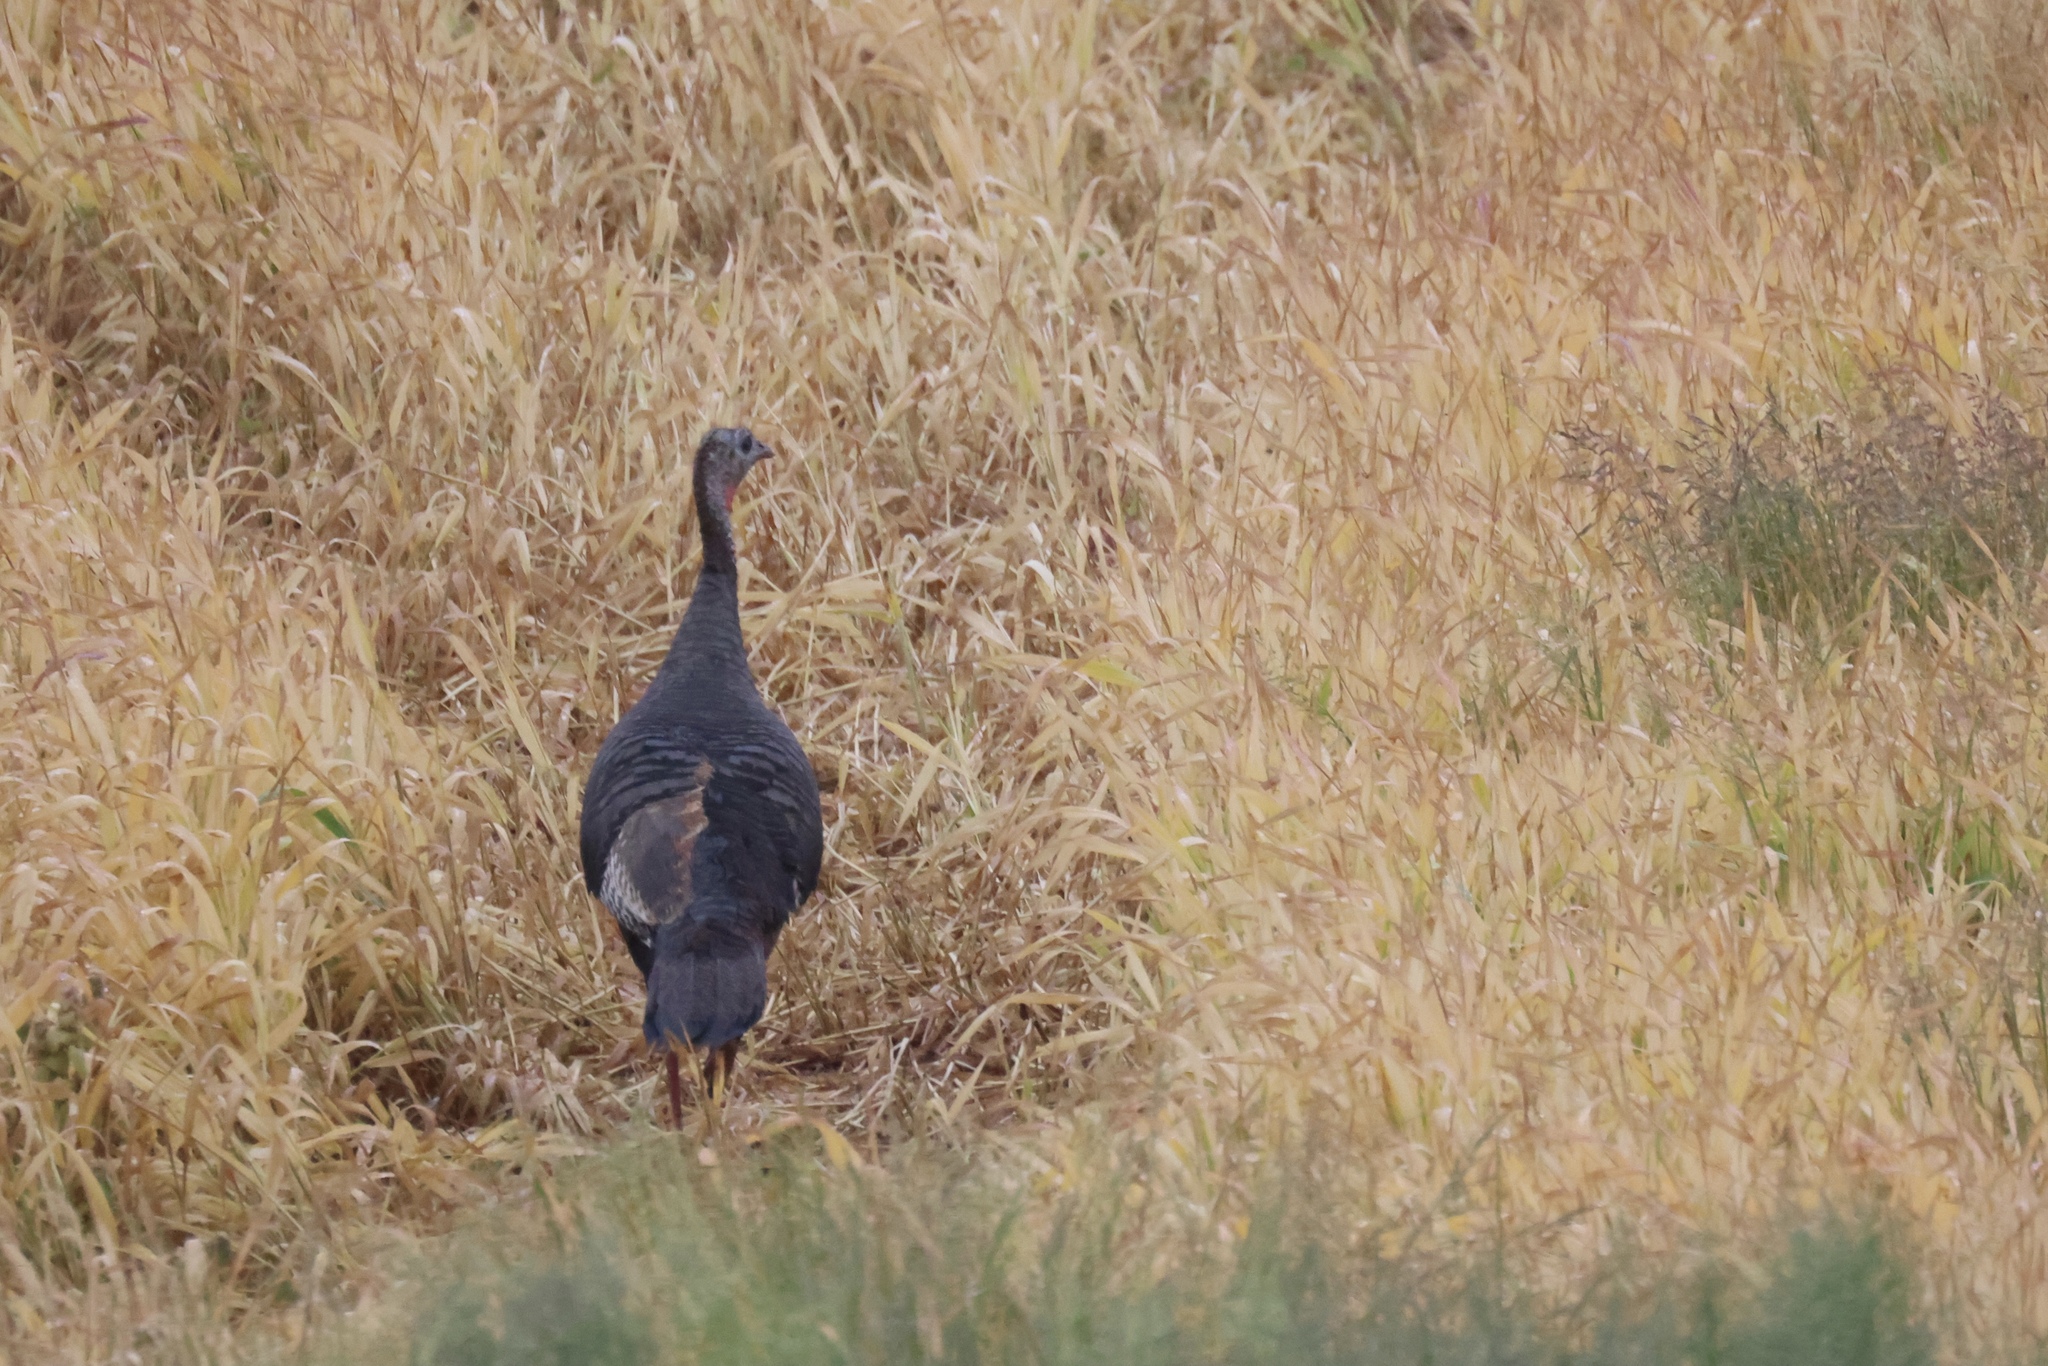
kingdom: Animalia
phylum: Chordata
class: Aves
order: Galliformes
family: Phasianidae
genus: Meleagris
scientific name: Meleagris gallopavo
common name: Wild turkey
